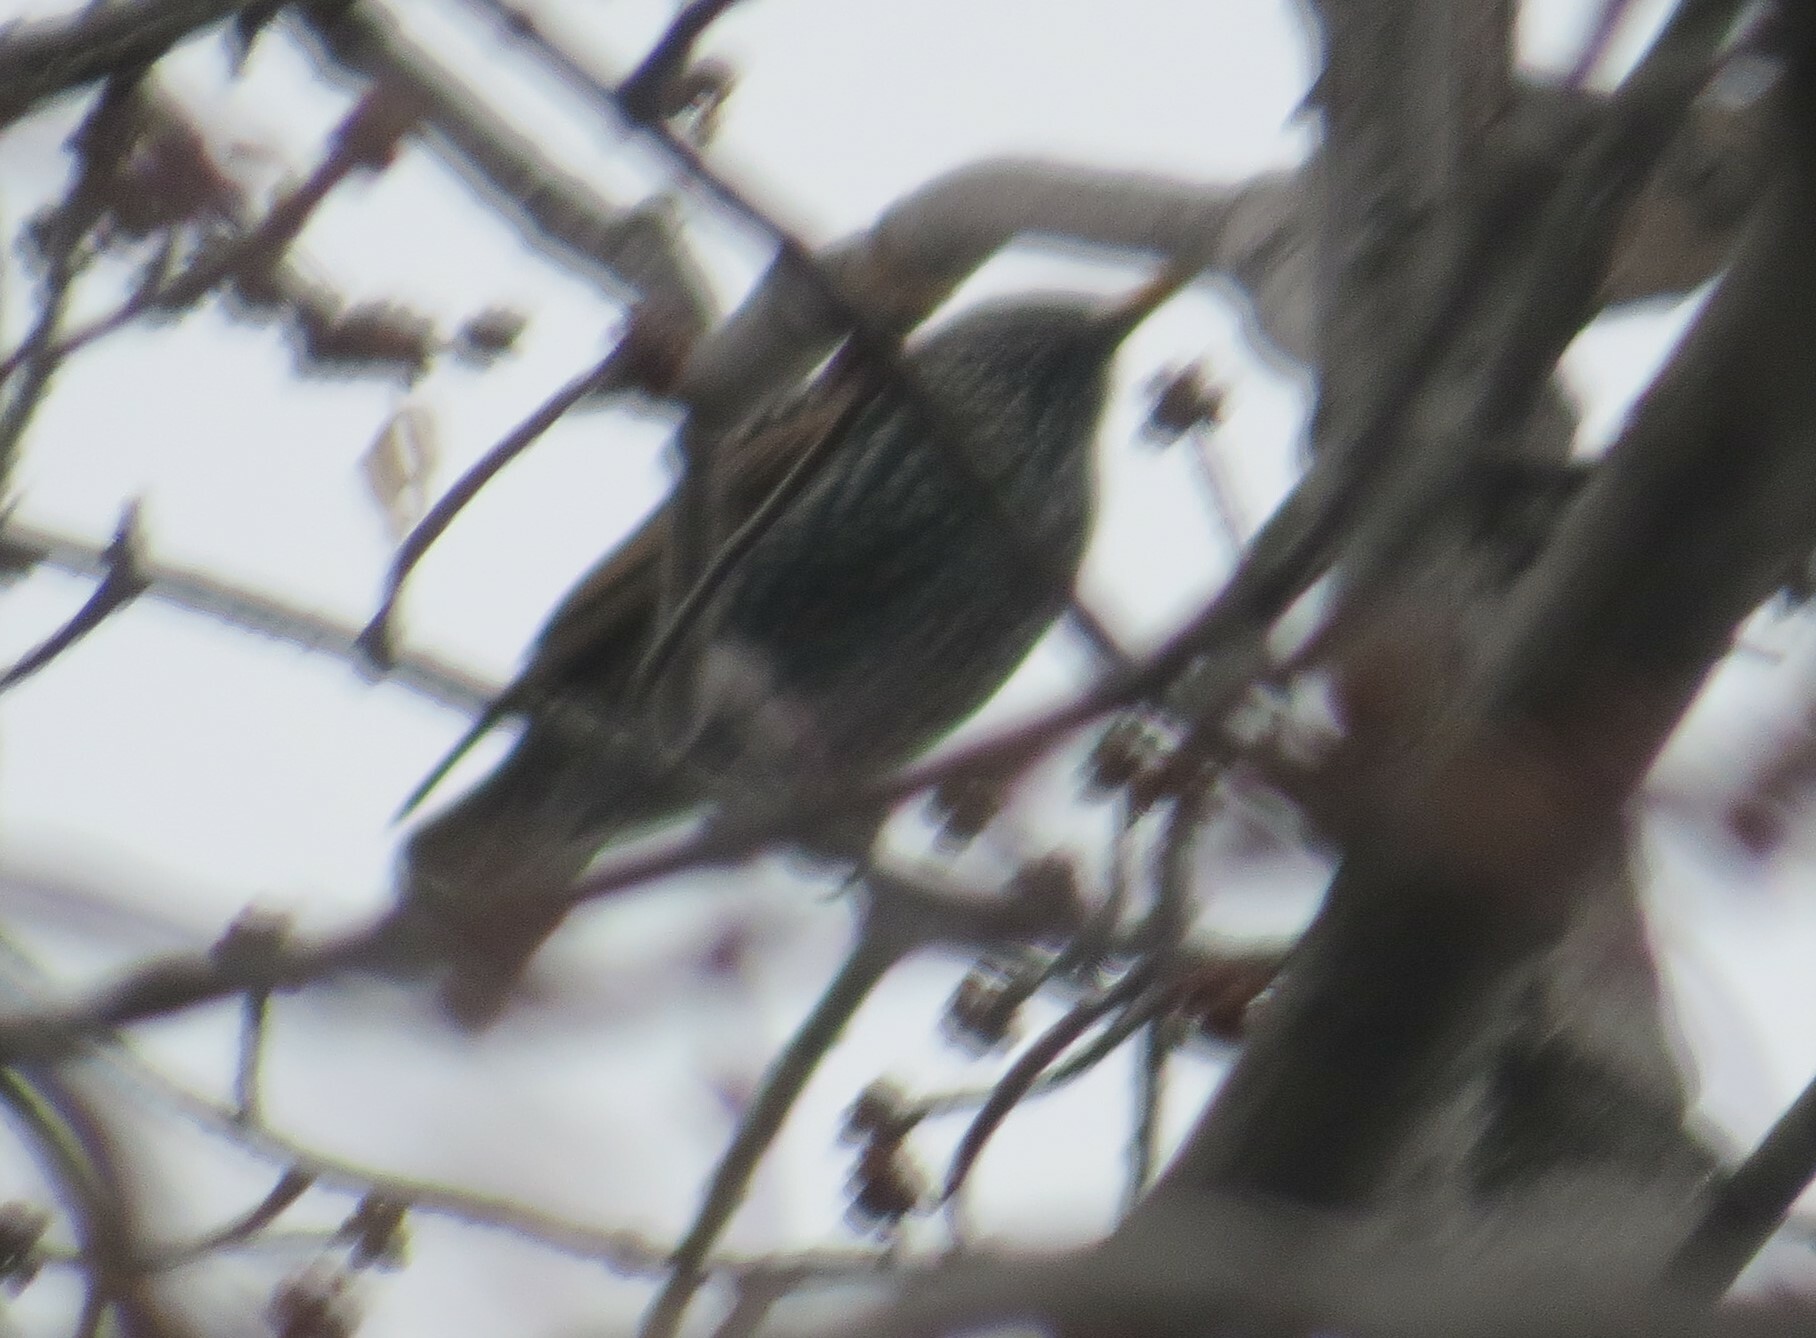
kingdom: Animalia
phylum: Chordata
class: Aves
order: Passeriformes
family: Sturnidae
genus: Sturnus
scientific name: Sturnus vulgaris
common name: Common starling
